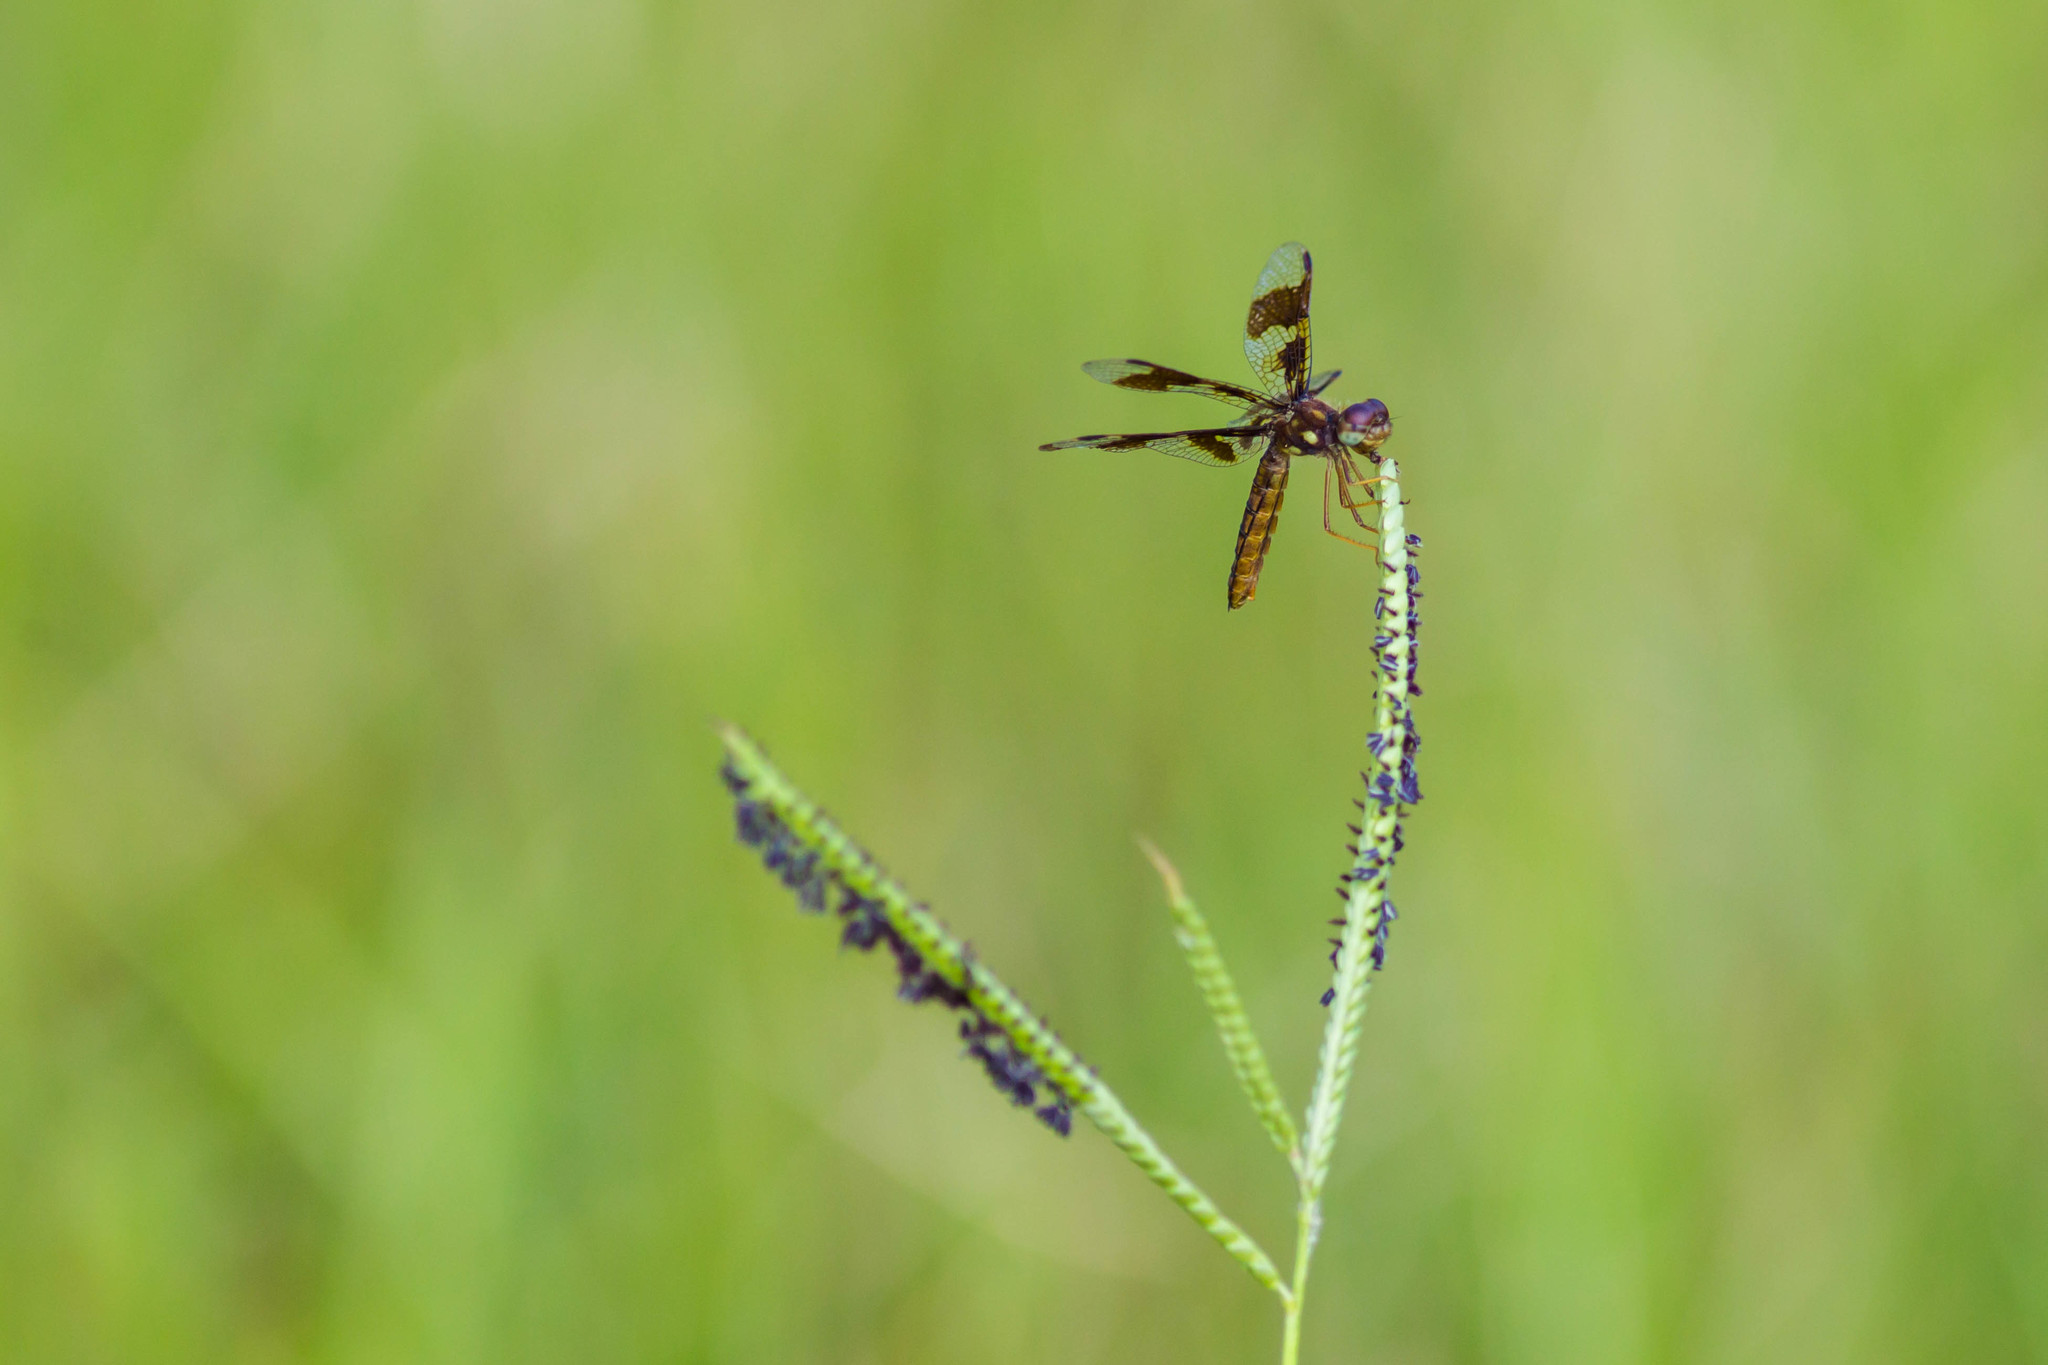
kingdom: Animalia
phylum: Arthropoda
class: Insecta
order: Odonata
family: Libellulidae
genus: Perithemis
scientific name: Perithemis tenera
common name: Eastern amberwing
